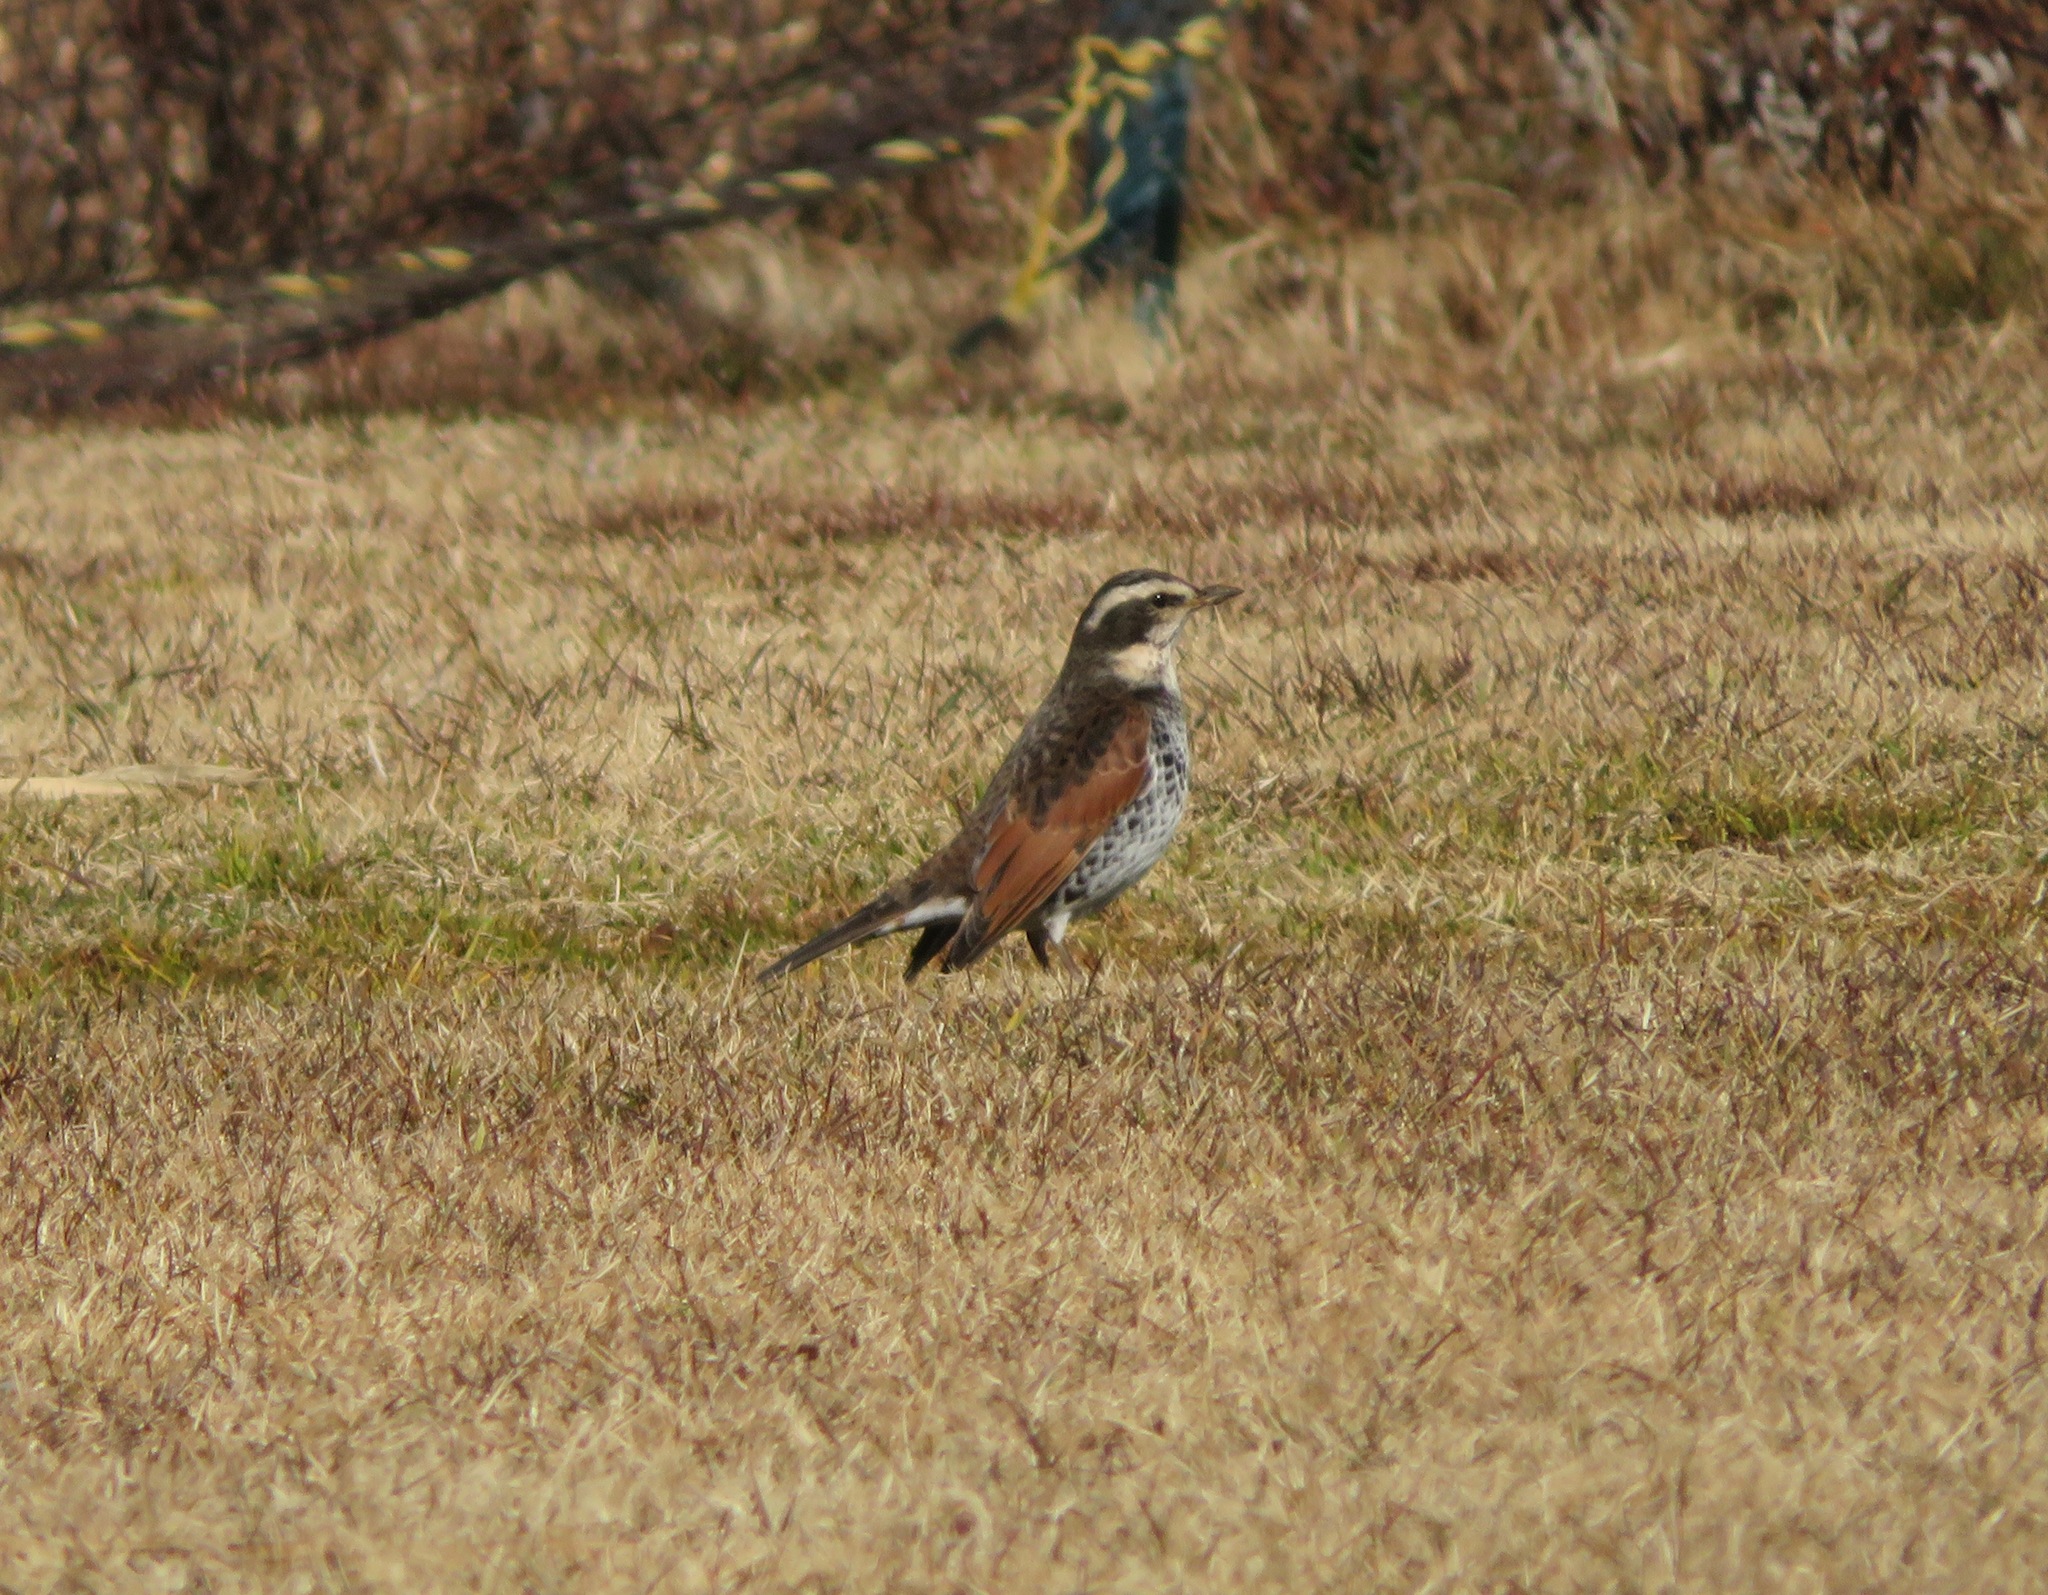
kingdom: Animalia
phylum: Chordata
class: Aves
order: Passeriformes
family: Turdidae
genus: Turdus
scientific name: Turdus eunomus
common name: Dusky thrush
